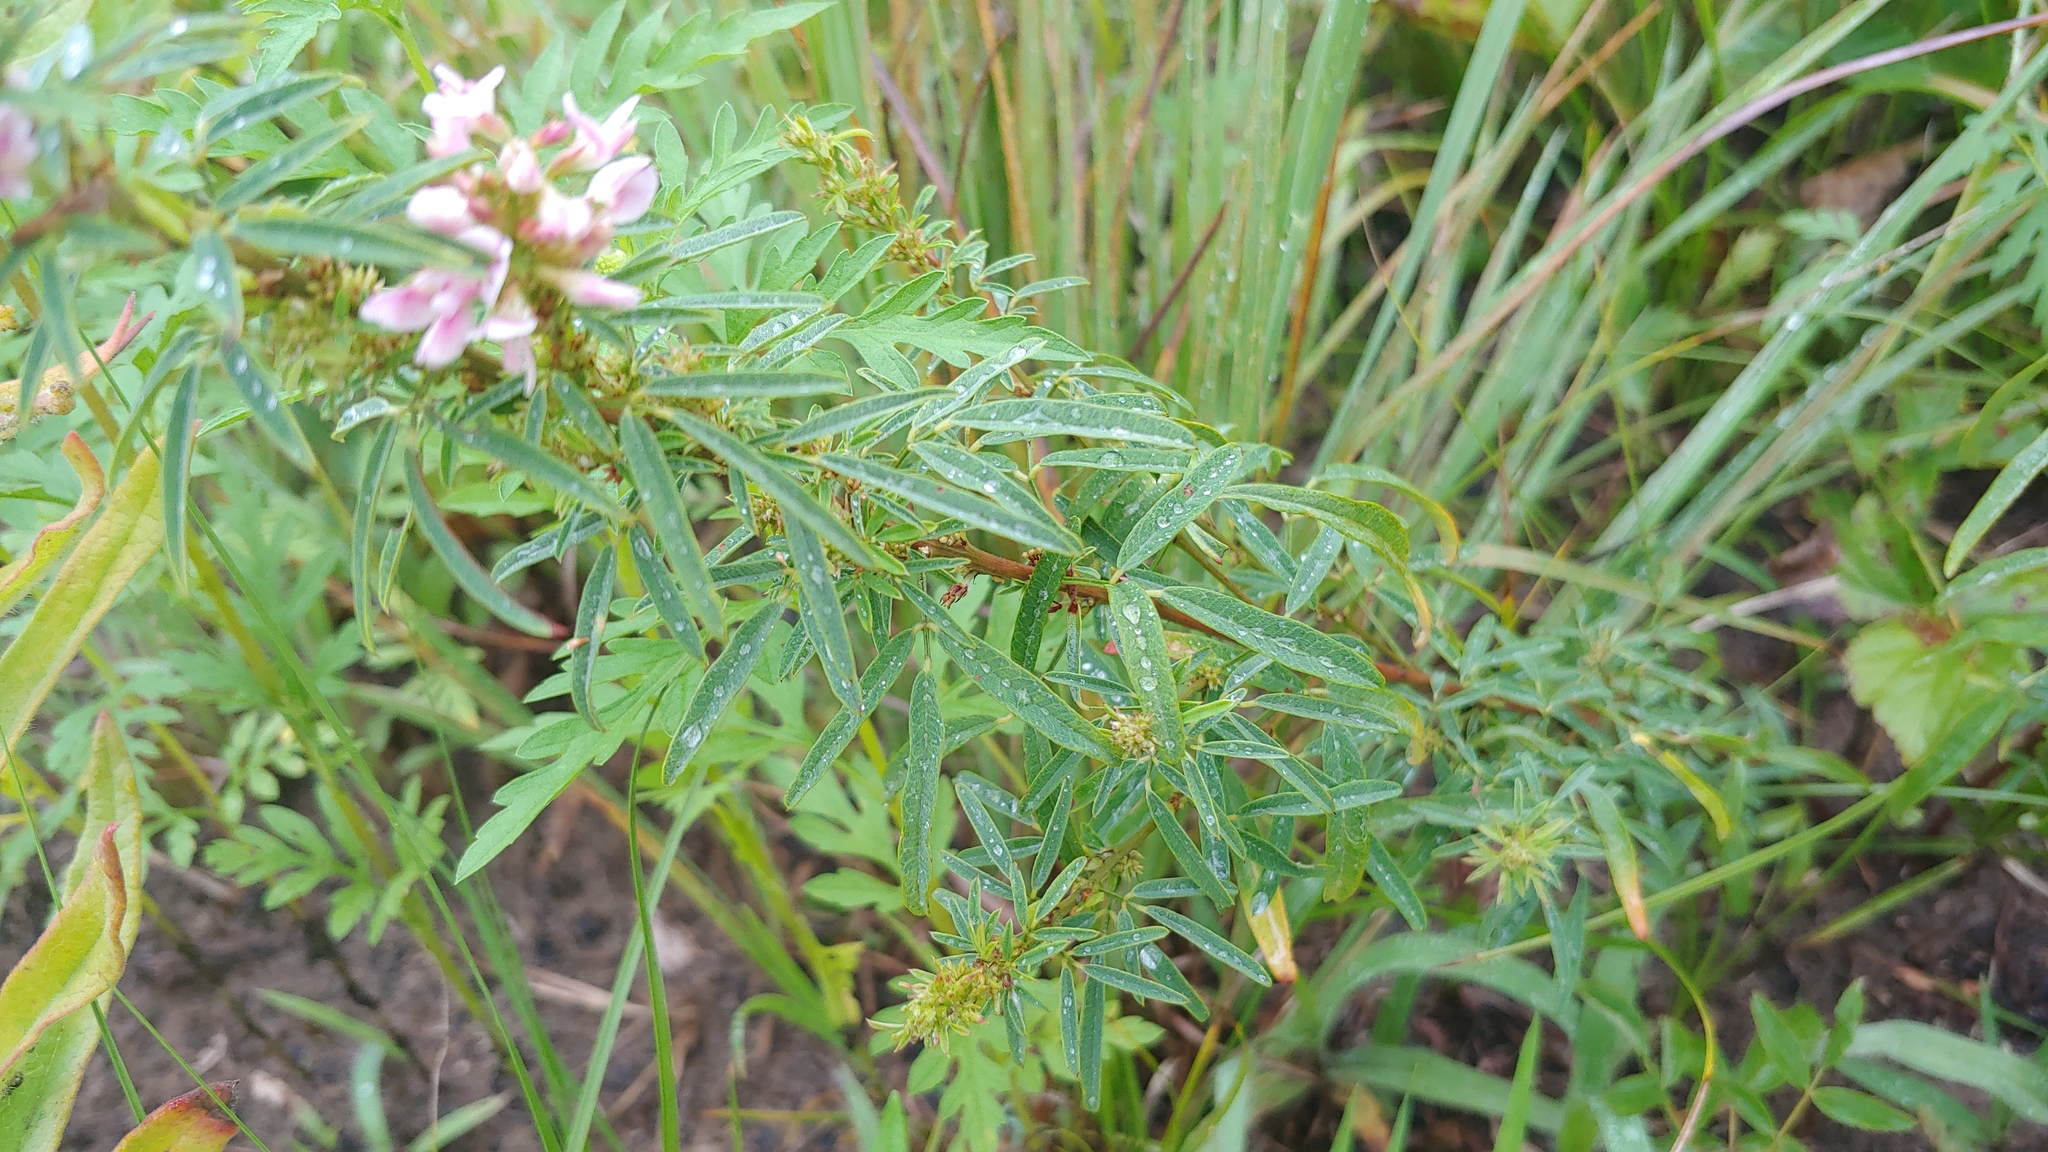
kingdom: Plantae
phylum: Tracheophyta
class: Magnoliopsida
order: Fabales
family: Fabaceae
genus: Lespedeza
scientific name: Lespedeza virginica
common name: Slender bush-clover
